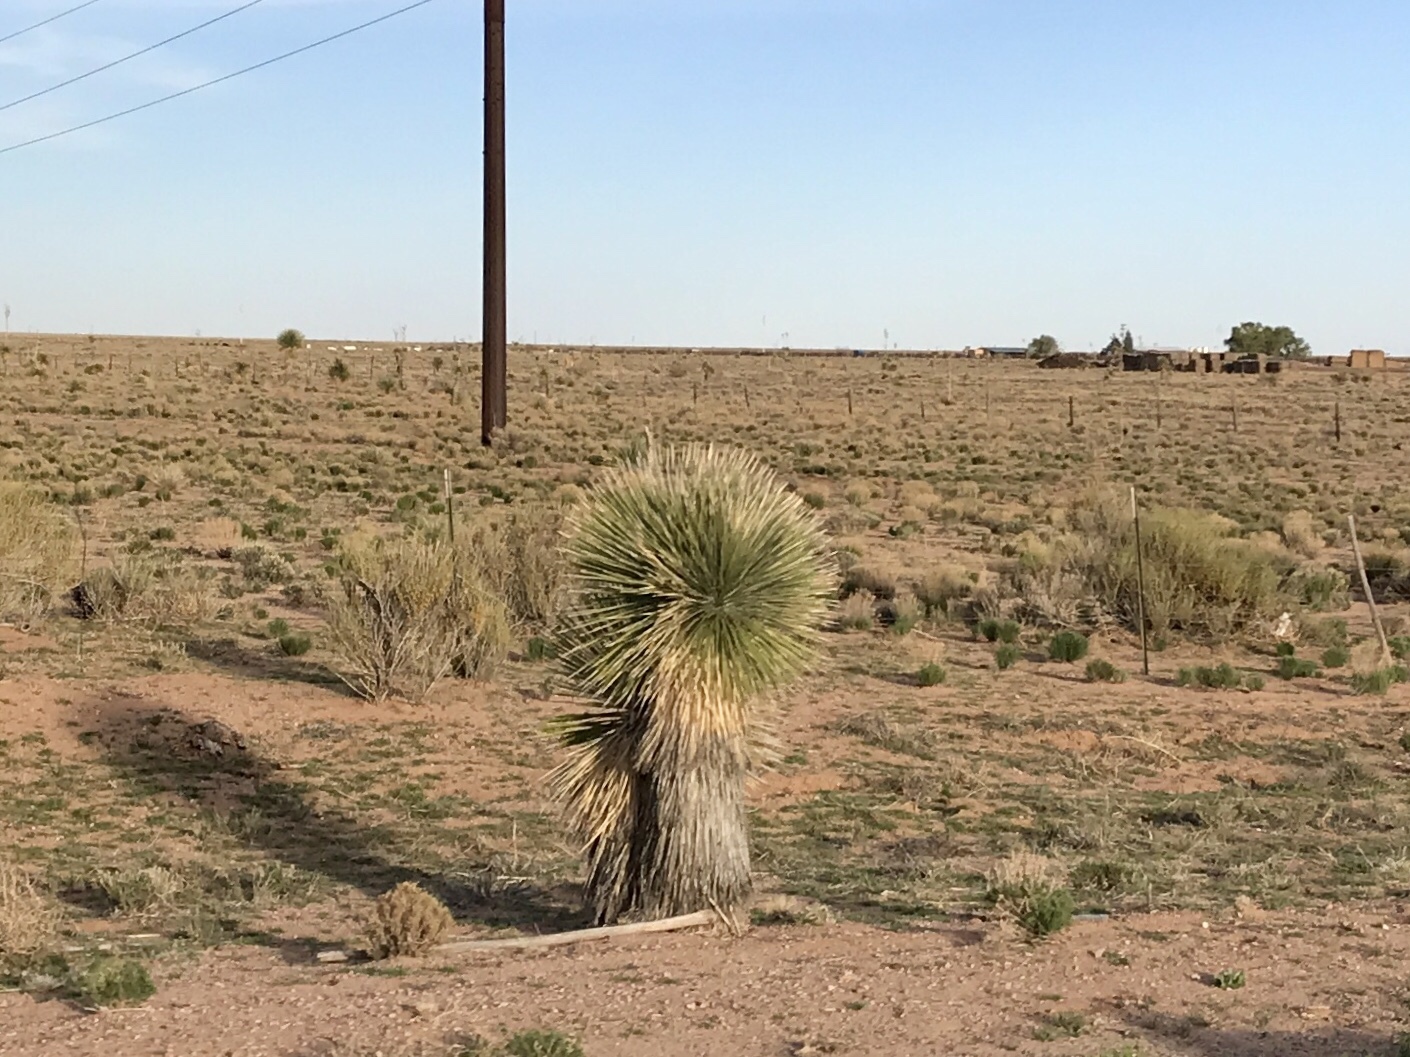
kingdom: Plantae
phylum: Tracheophyta
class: Liliopsida
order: Asparagales
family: Asparagaceae
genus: Yucca
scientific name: Yucca elata
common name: Palmella
